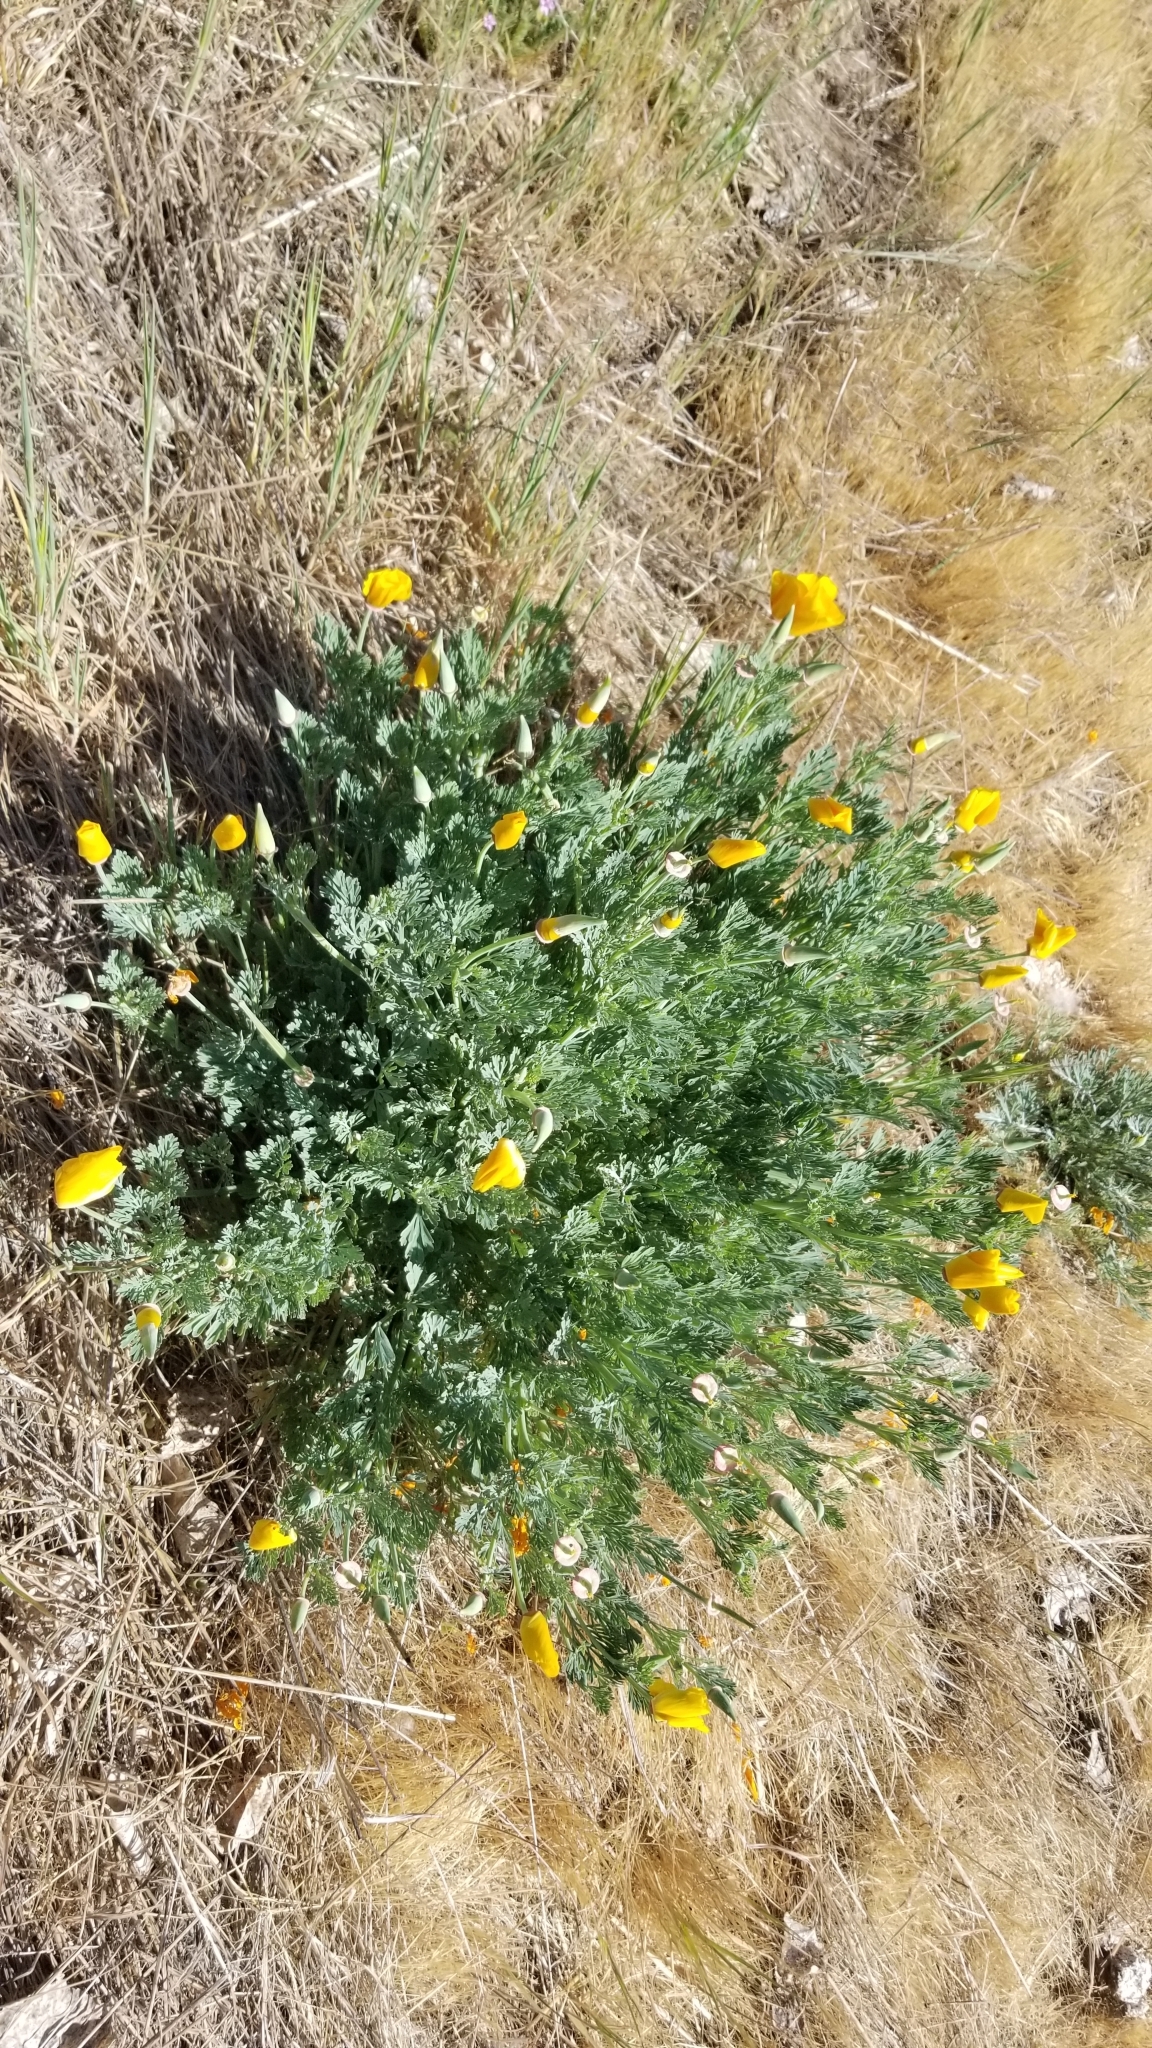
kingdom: Plantae
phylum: Tracheophyta
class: Magnoliopsida
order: Ranunculales
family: Papaveraceae
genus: Eschscholzia
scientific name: Eschscholzia californica
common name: California poppy
